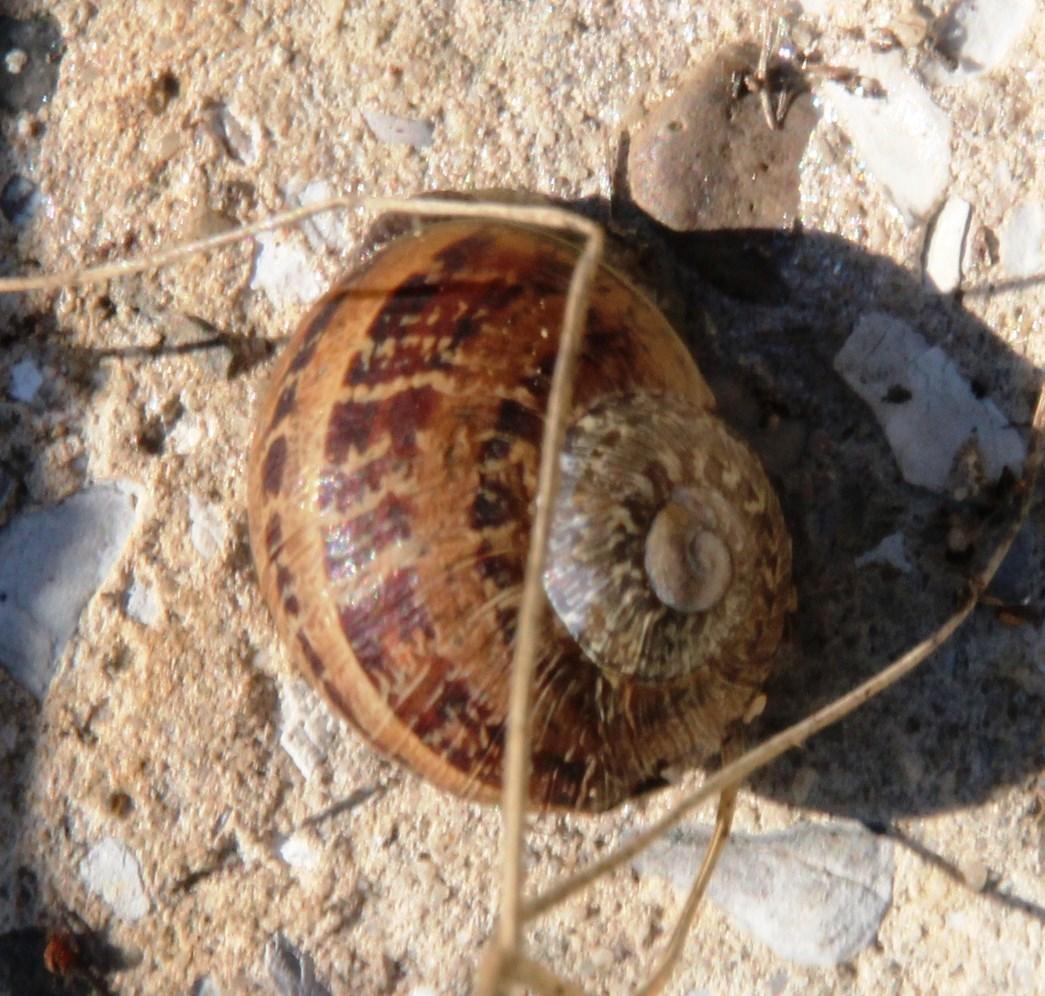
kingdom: Animalia
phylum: Mollusca
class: Gastropoda
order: Stylommatophora
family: Helicidae
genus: Cornu
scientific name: Cornu aspersum
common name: Brown garden snail
